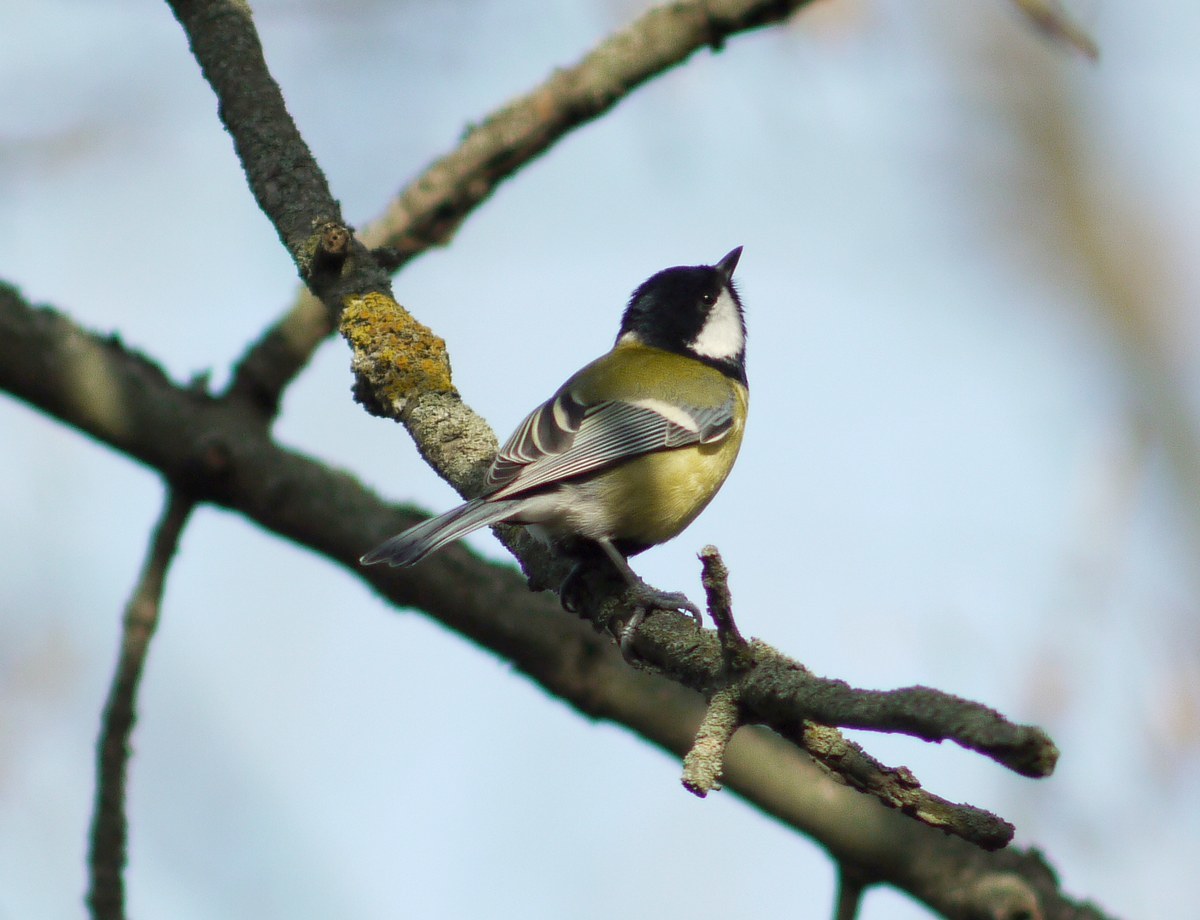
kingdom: Animalia
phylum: Chordata
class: Aves
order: Passeriformes
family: Paridae
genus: Parus
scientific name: Parus major
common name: Great tit
